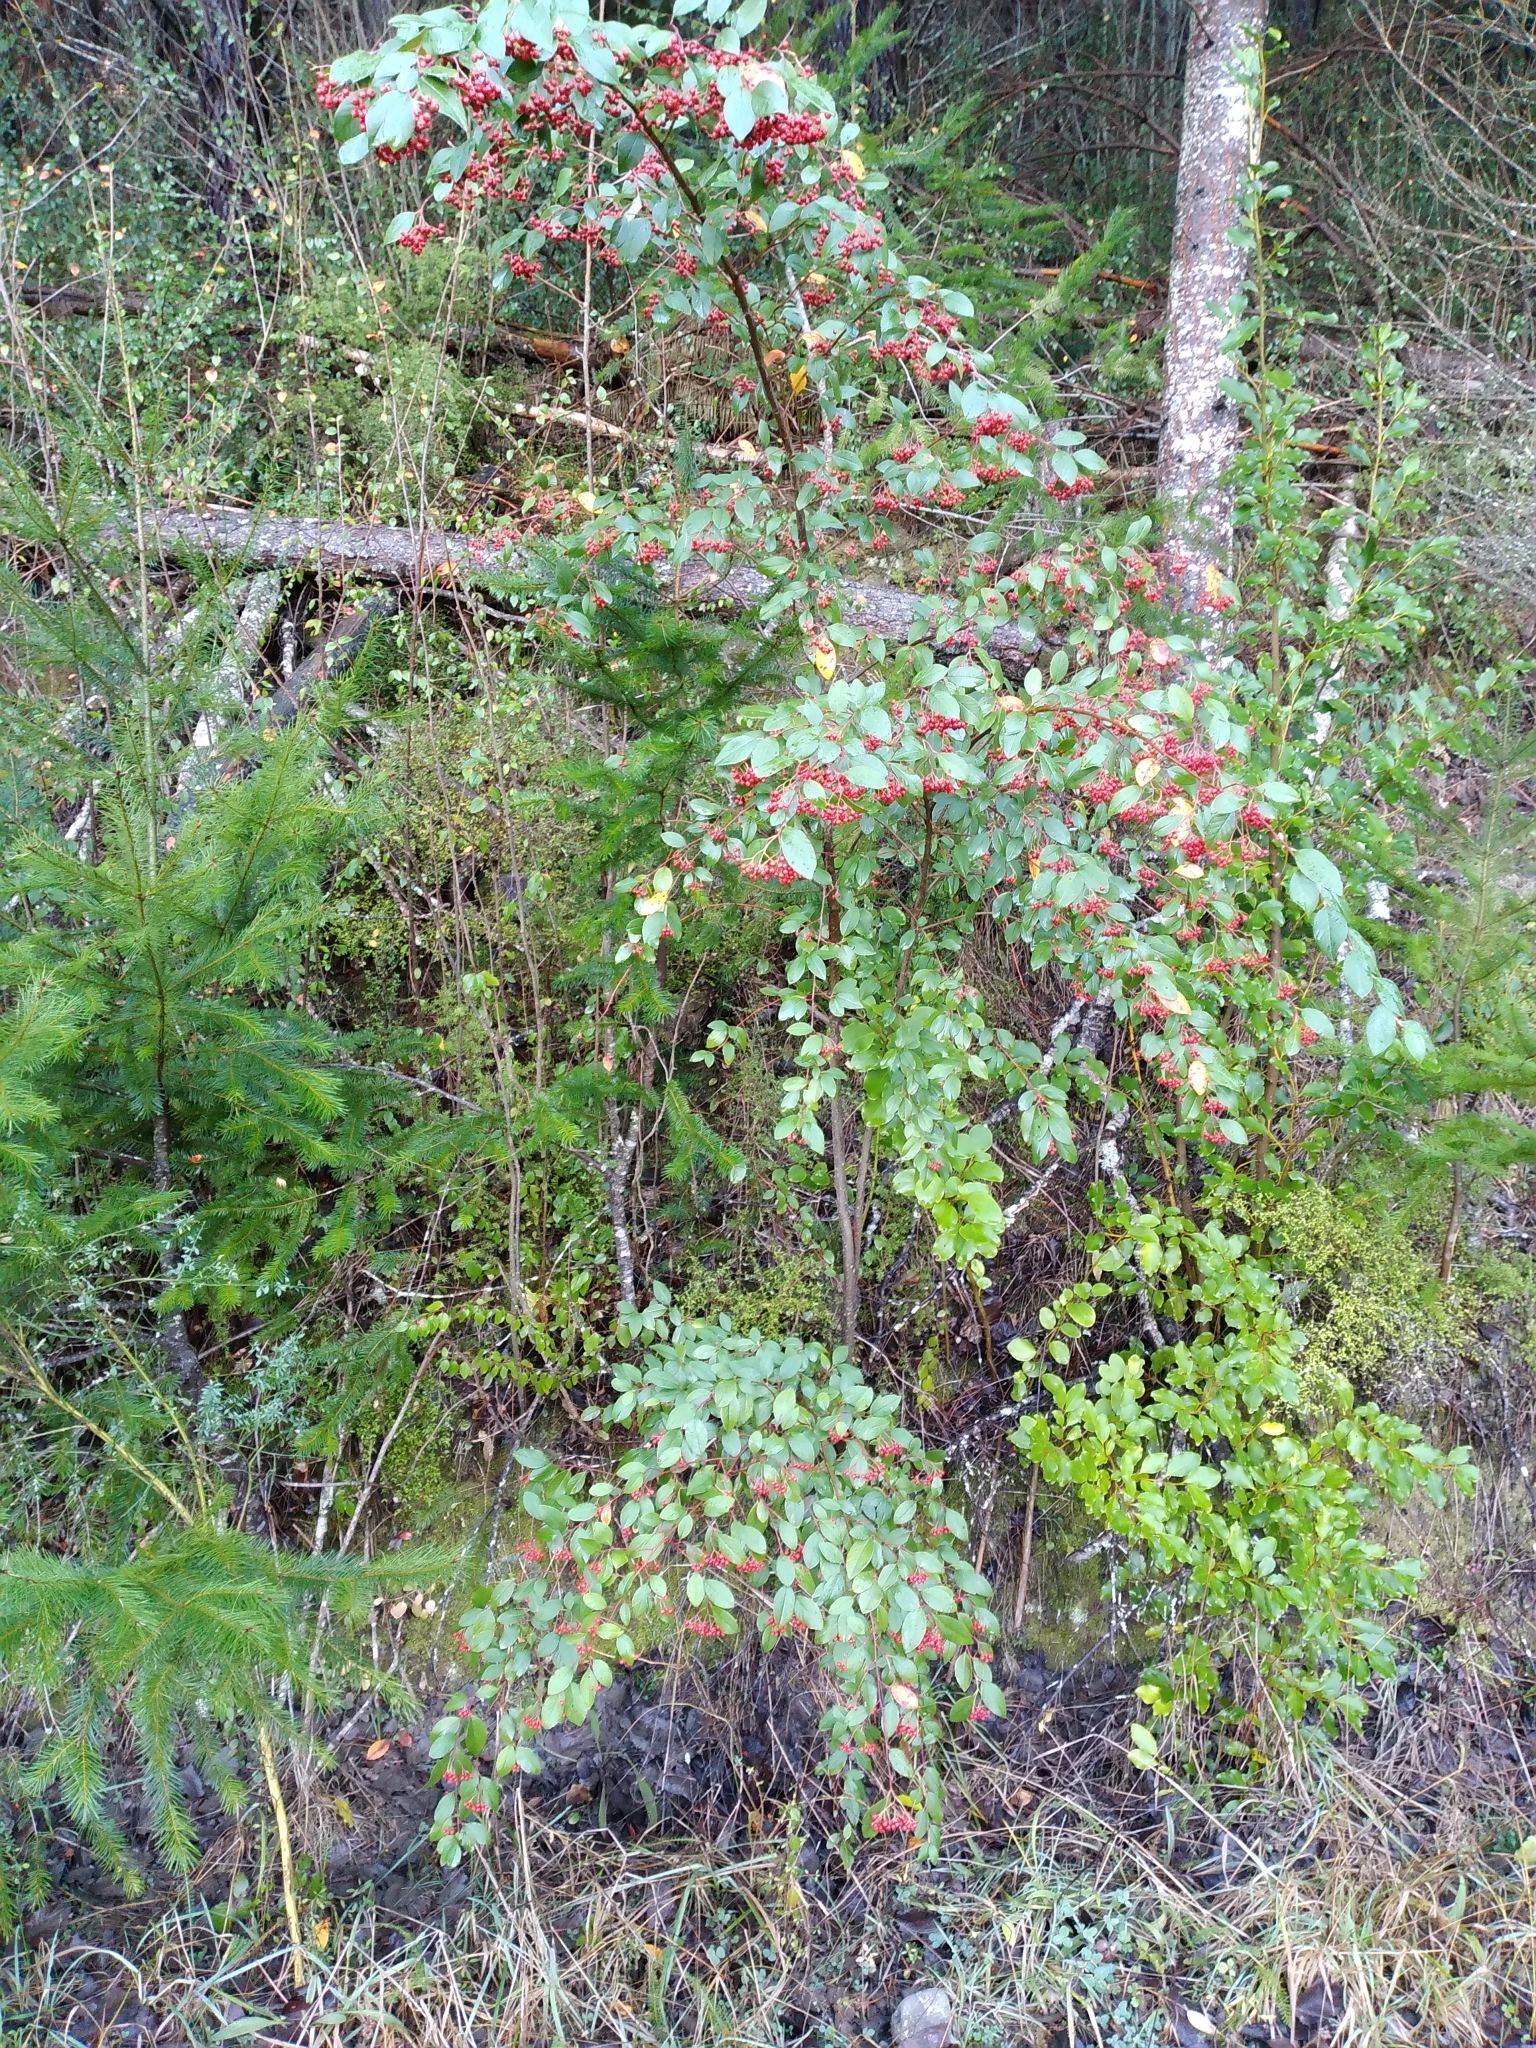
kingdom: Plantae
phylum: Tracheophyta
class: Magnoliopsida
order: Rosales
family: Rosaceae
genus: Cotoneaster
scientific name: Cotoneaster glaucophyllus
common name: Glaucous cotoneaster
